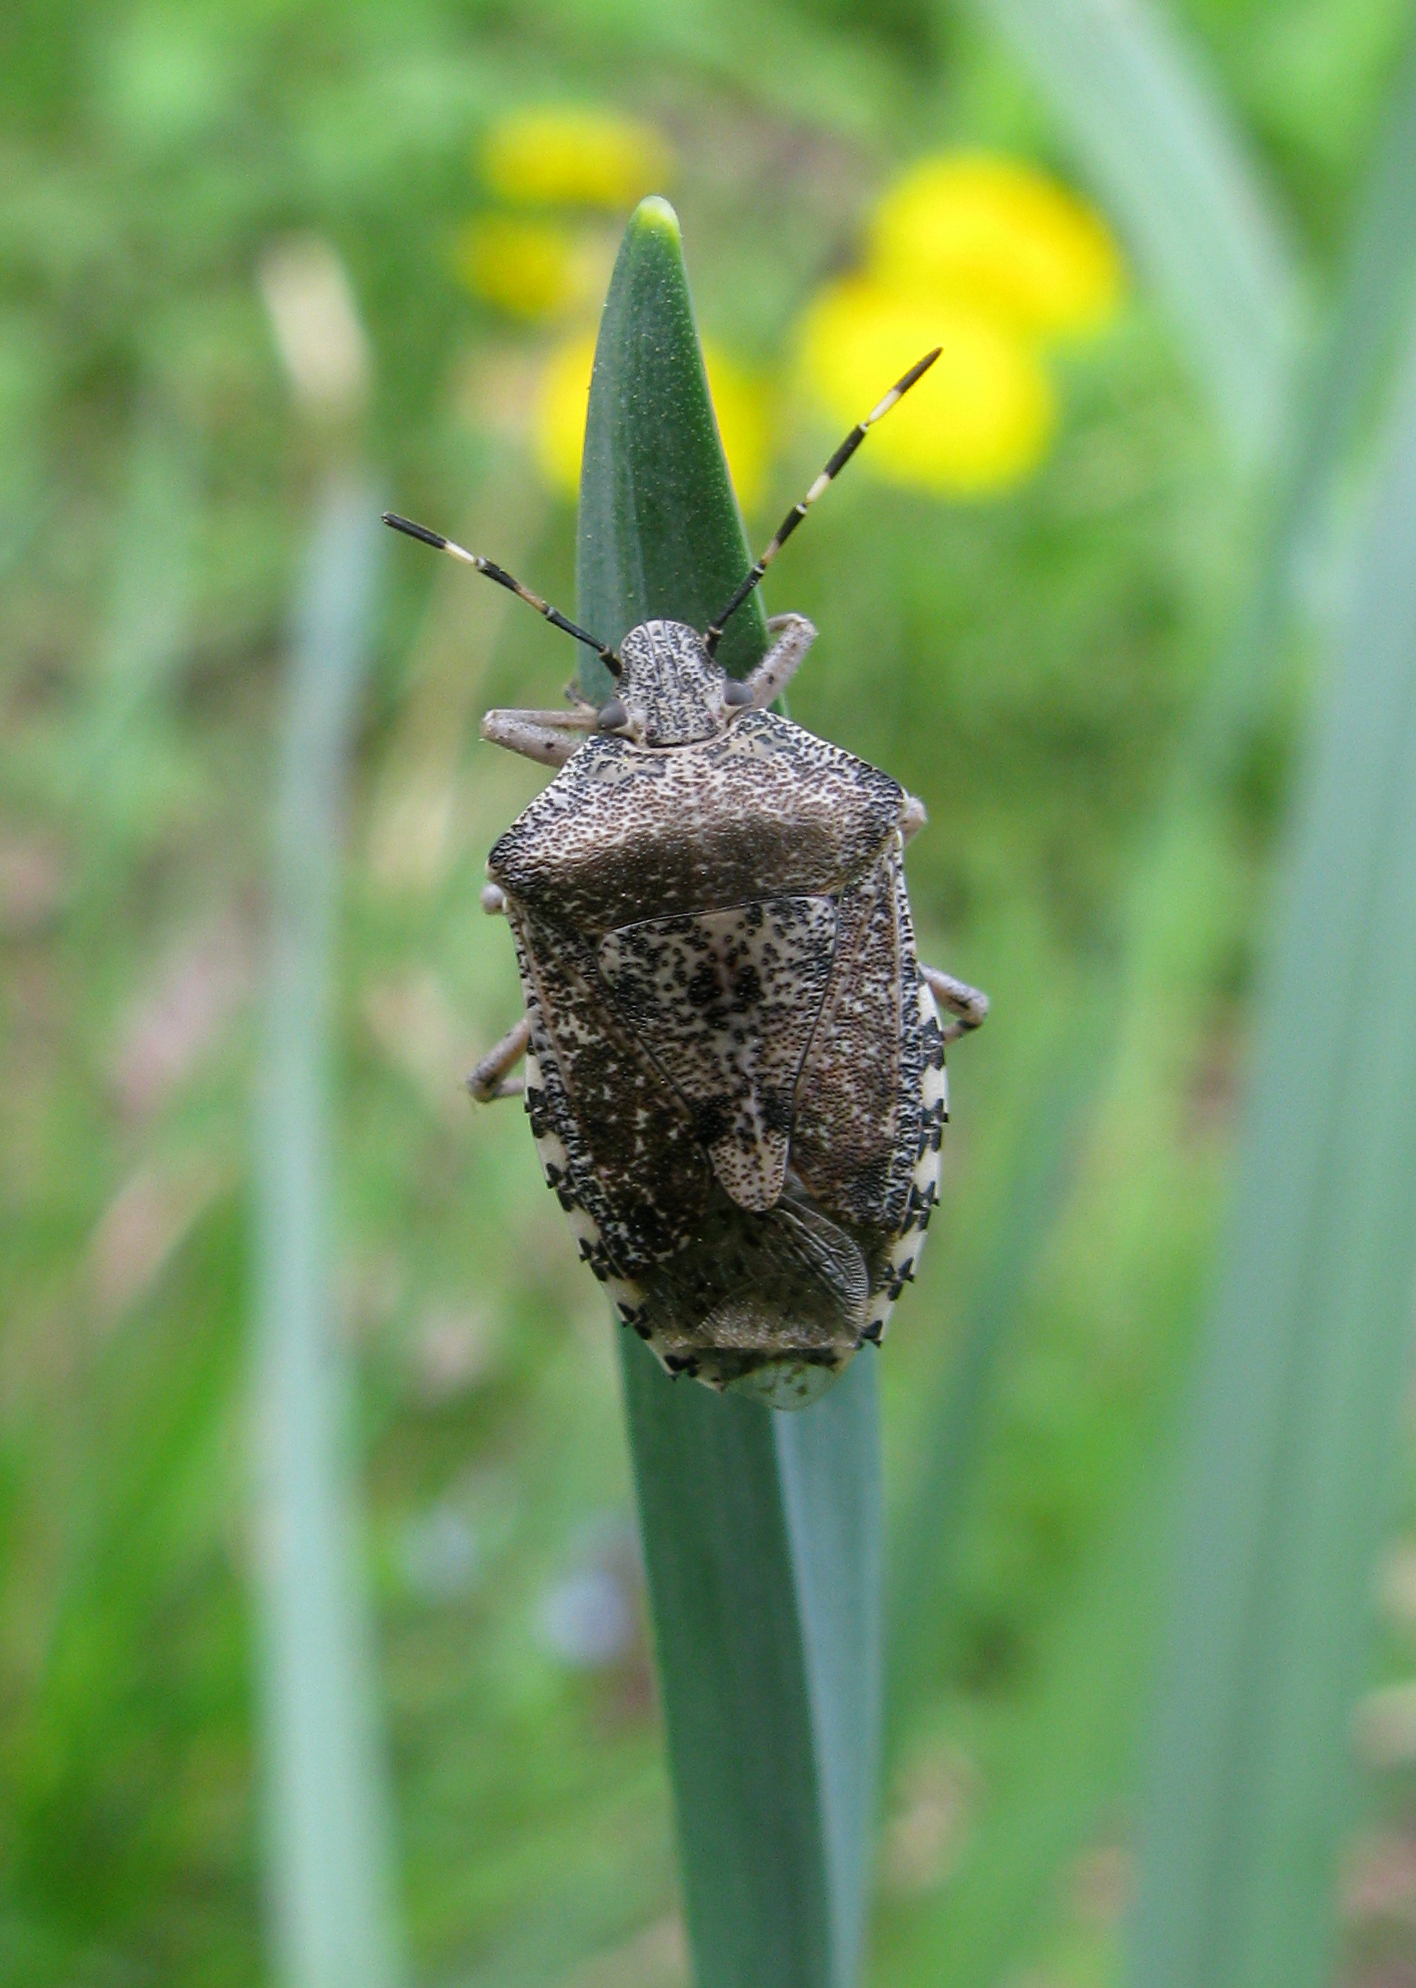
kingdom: Animalia
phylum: Arthropoda
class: Insecta
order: Hemiptera
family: Pentatomidae
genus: Rhaphigaster
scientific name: Rhaphigaster nebulosa
